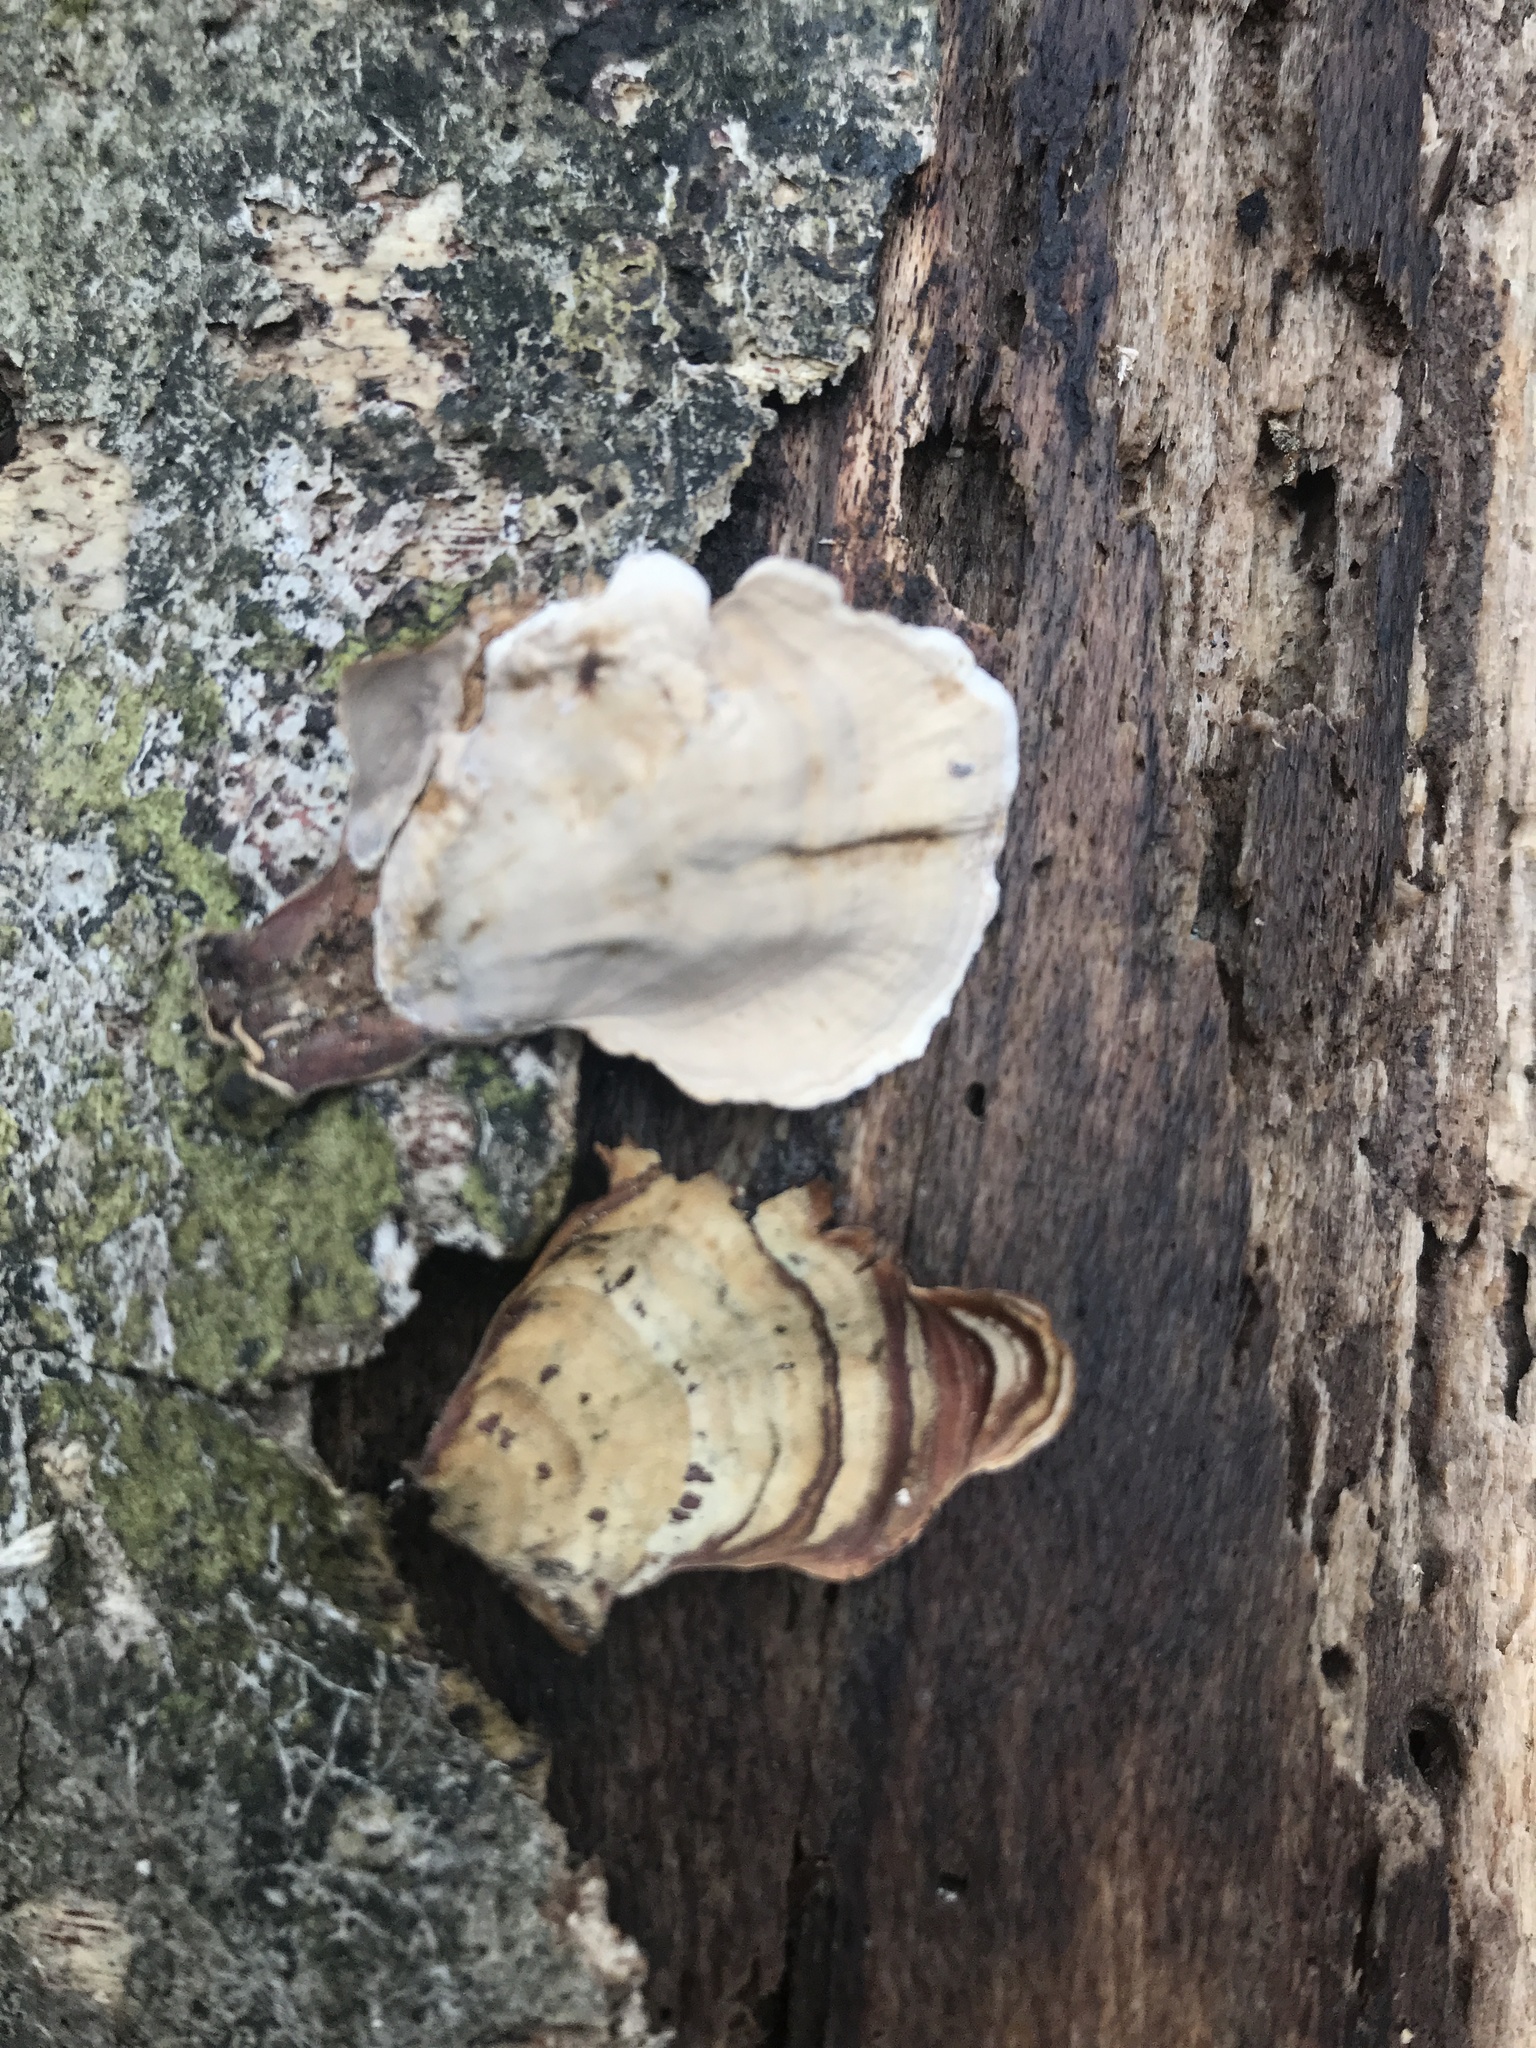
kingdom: Fungi
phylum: Basidiomycota
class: Agaricomycetes
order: Russulales
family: Stereaceae
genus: Stereum
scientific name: Stereum lobatum
